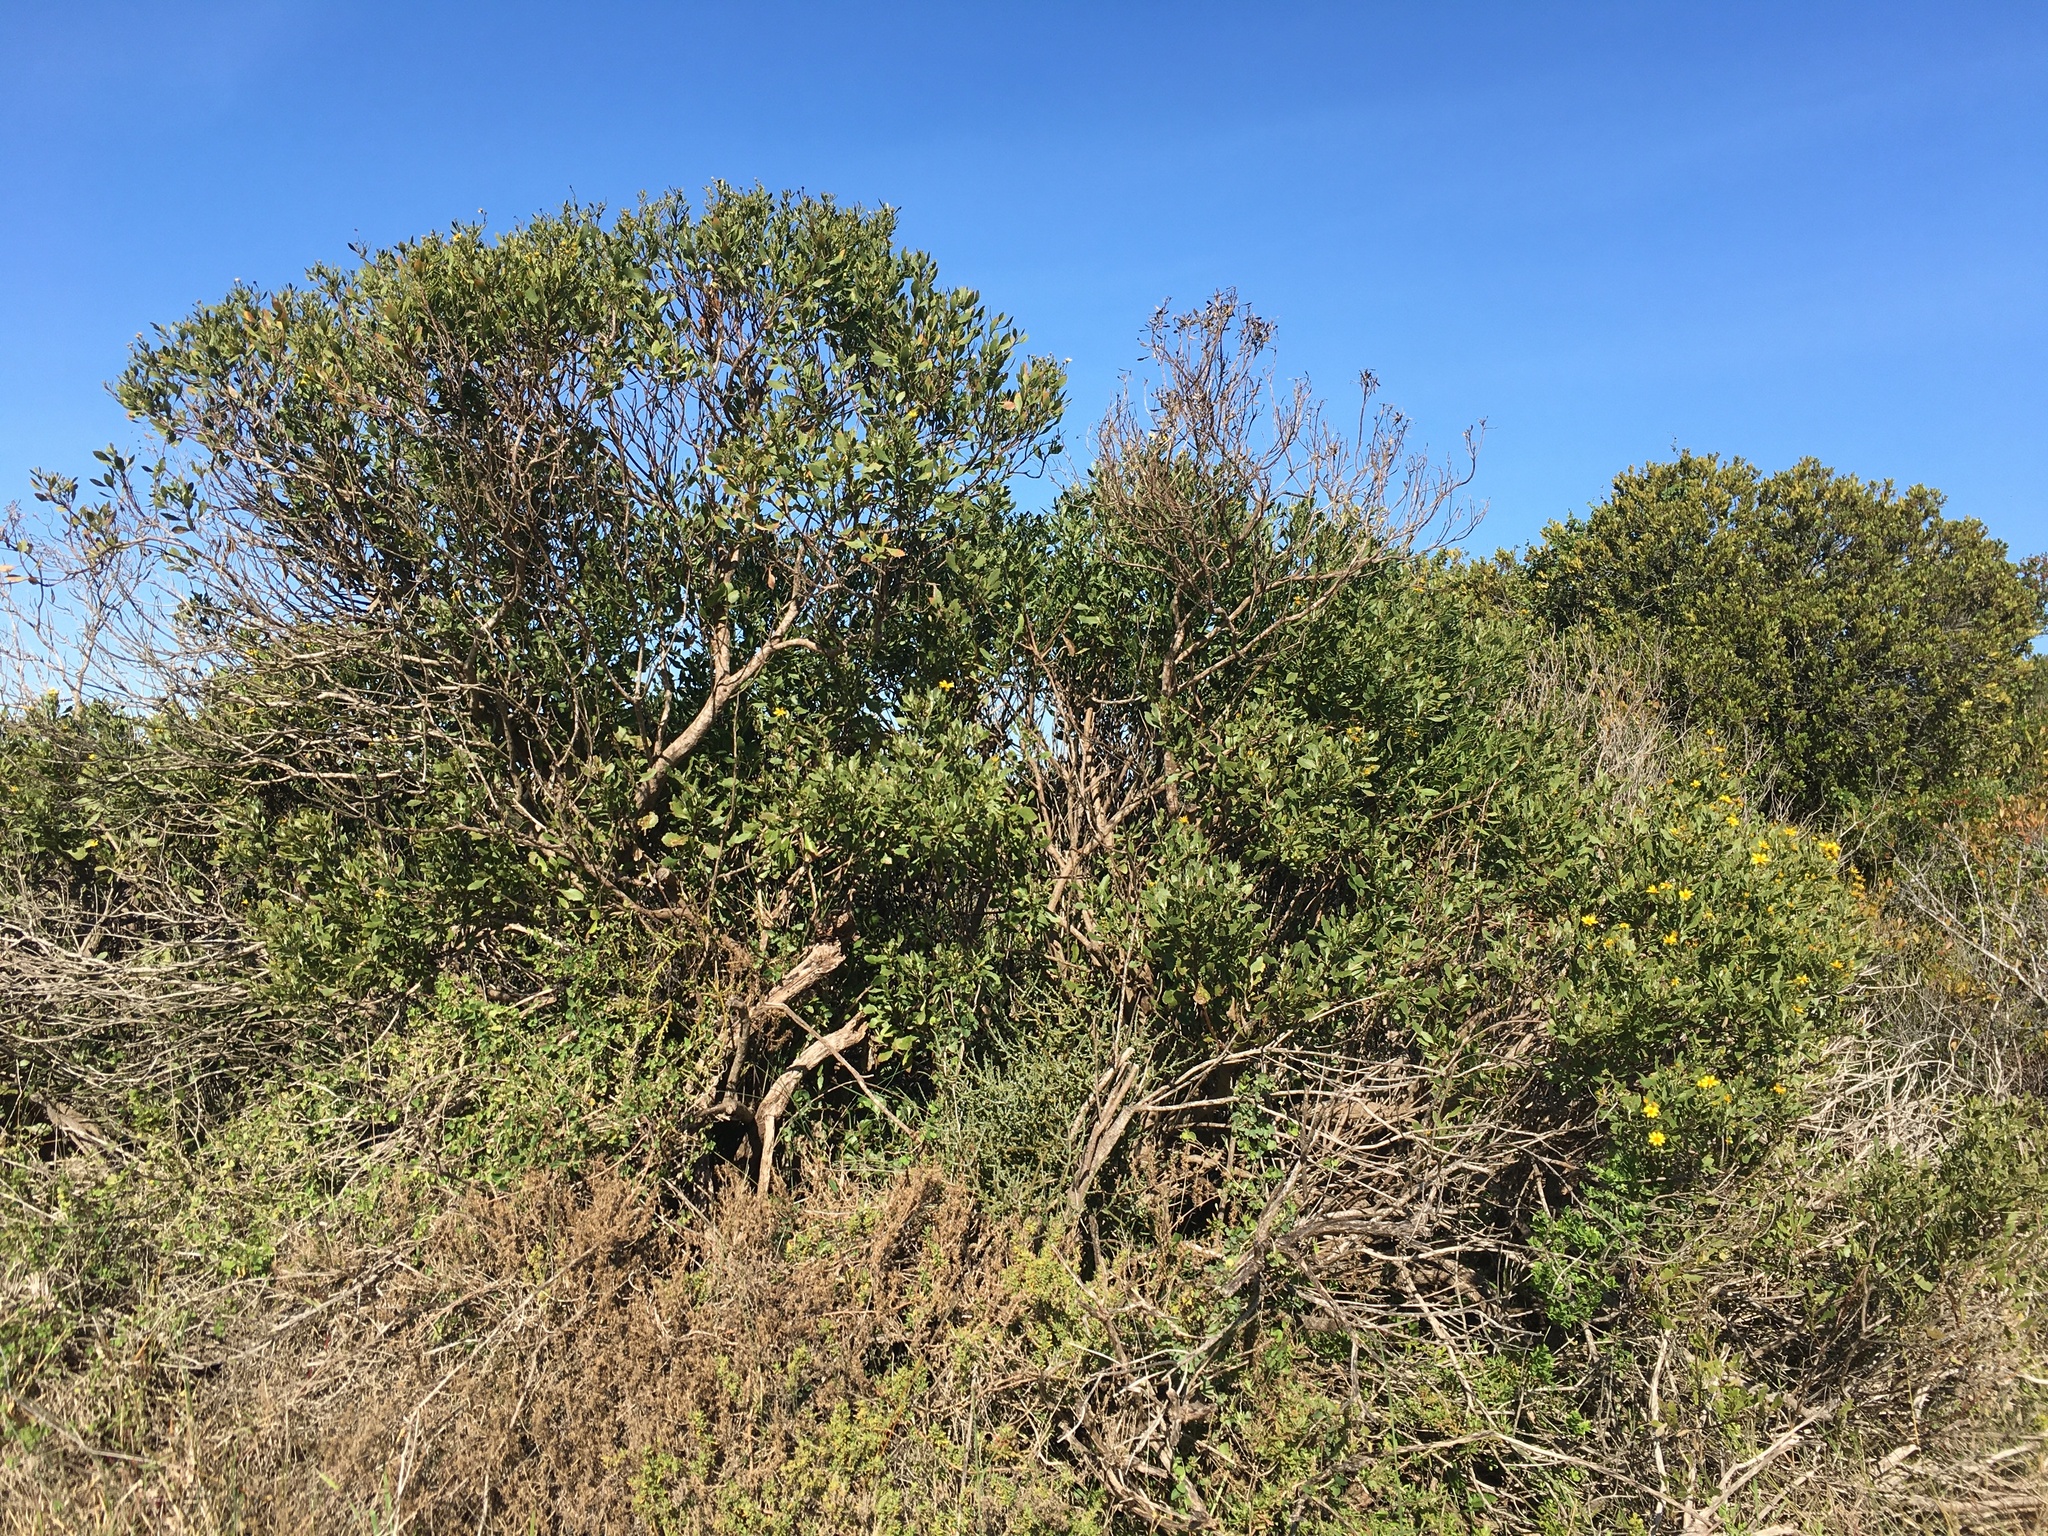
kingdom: Plantae
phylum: Tracheophyta
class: Magnoliopsida
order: Asterales
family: Asteraceae
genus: Osteospermum
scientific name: Osteospermum moniliferum
